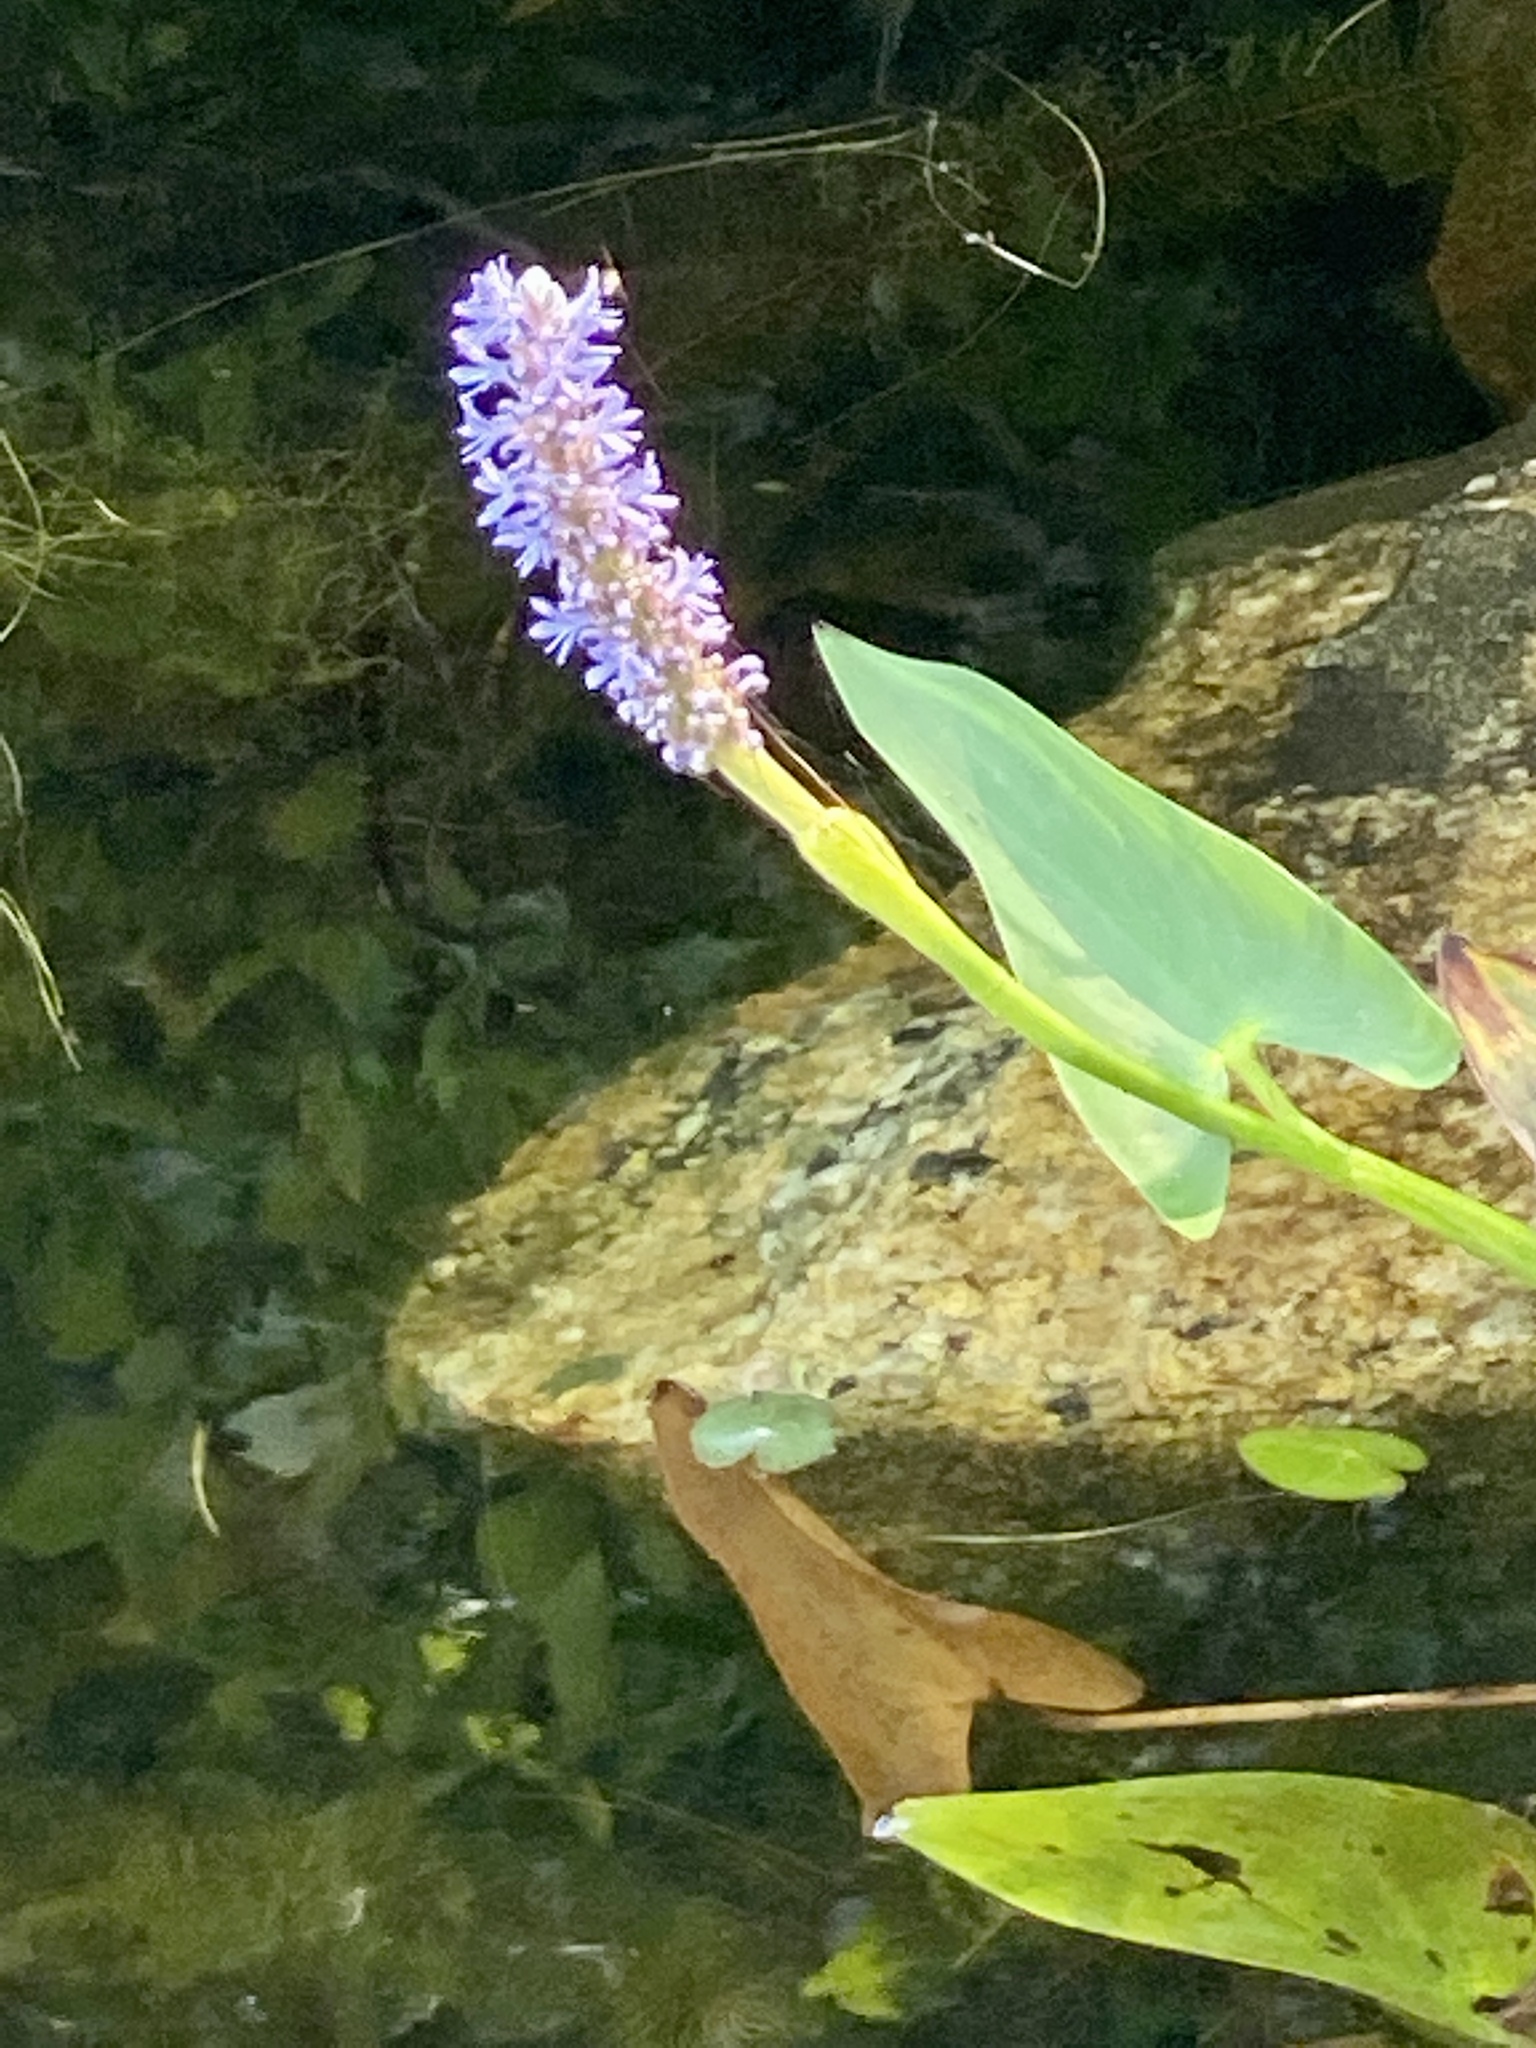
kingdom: Plantae
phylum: Tracheophyta
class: Liliopsida
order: Commelinales
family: Pontederiaceae
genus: Pontederia
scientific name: Pontederia cordata
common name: Pickerelweed
